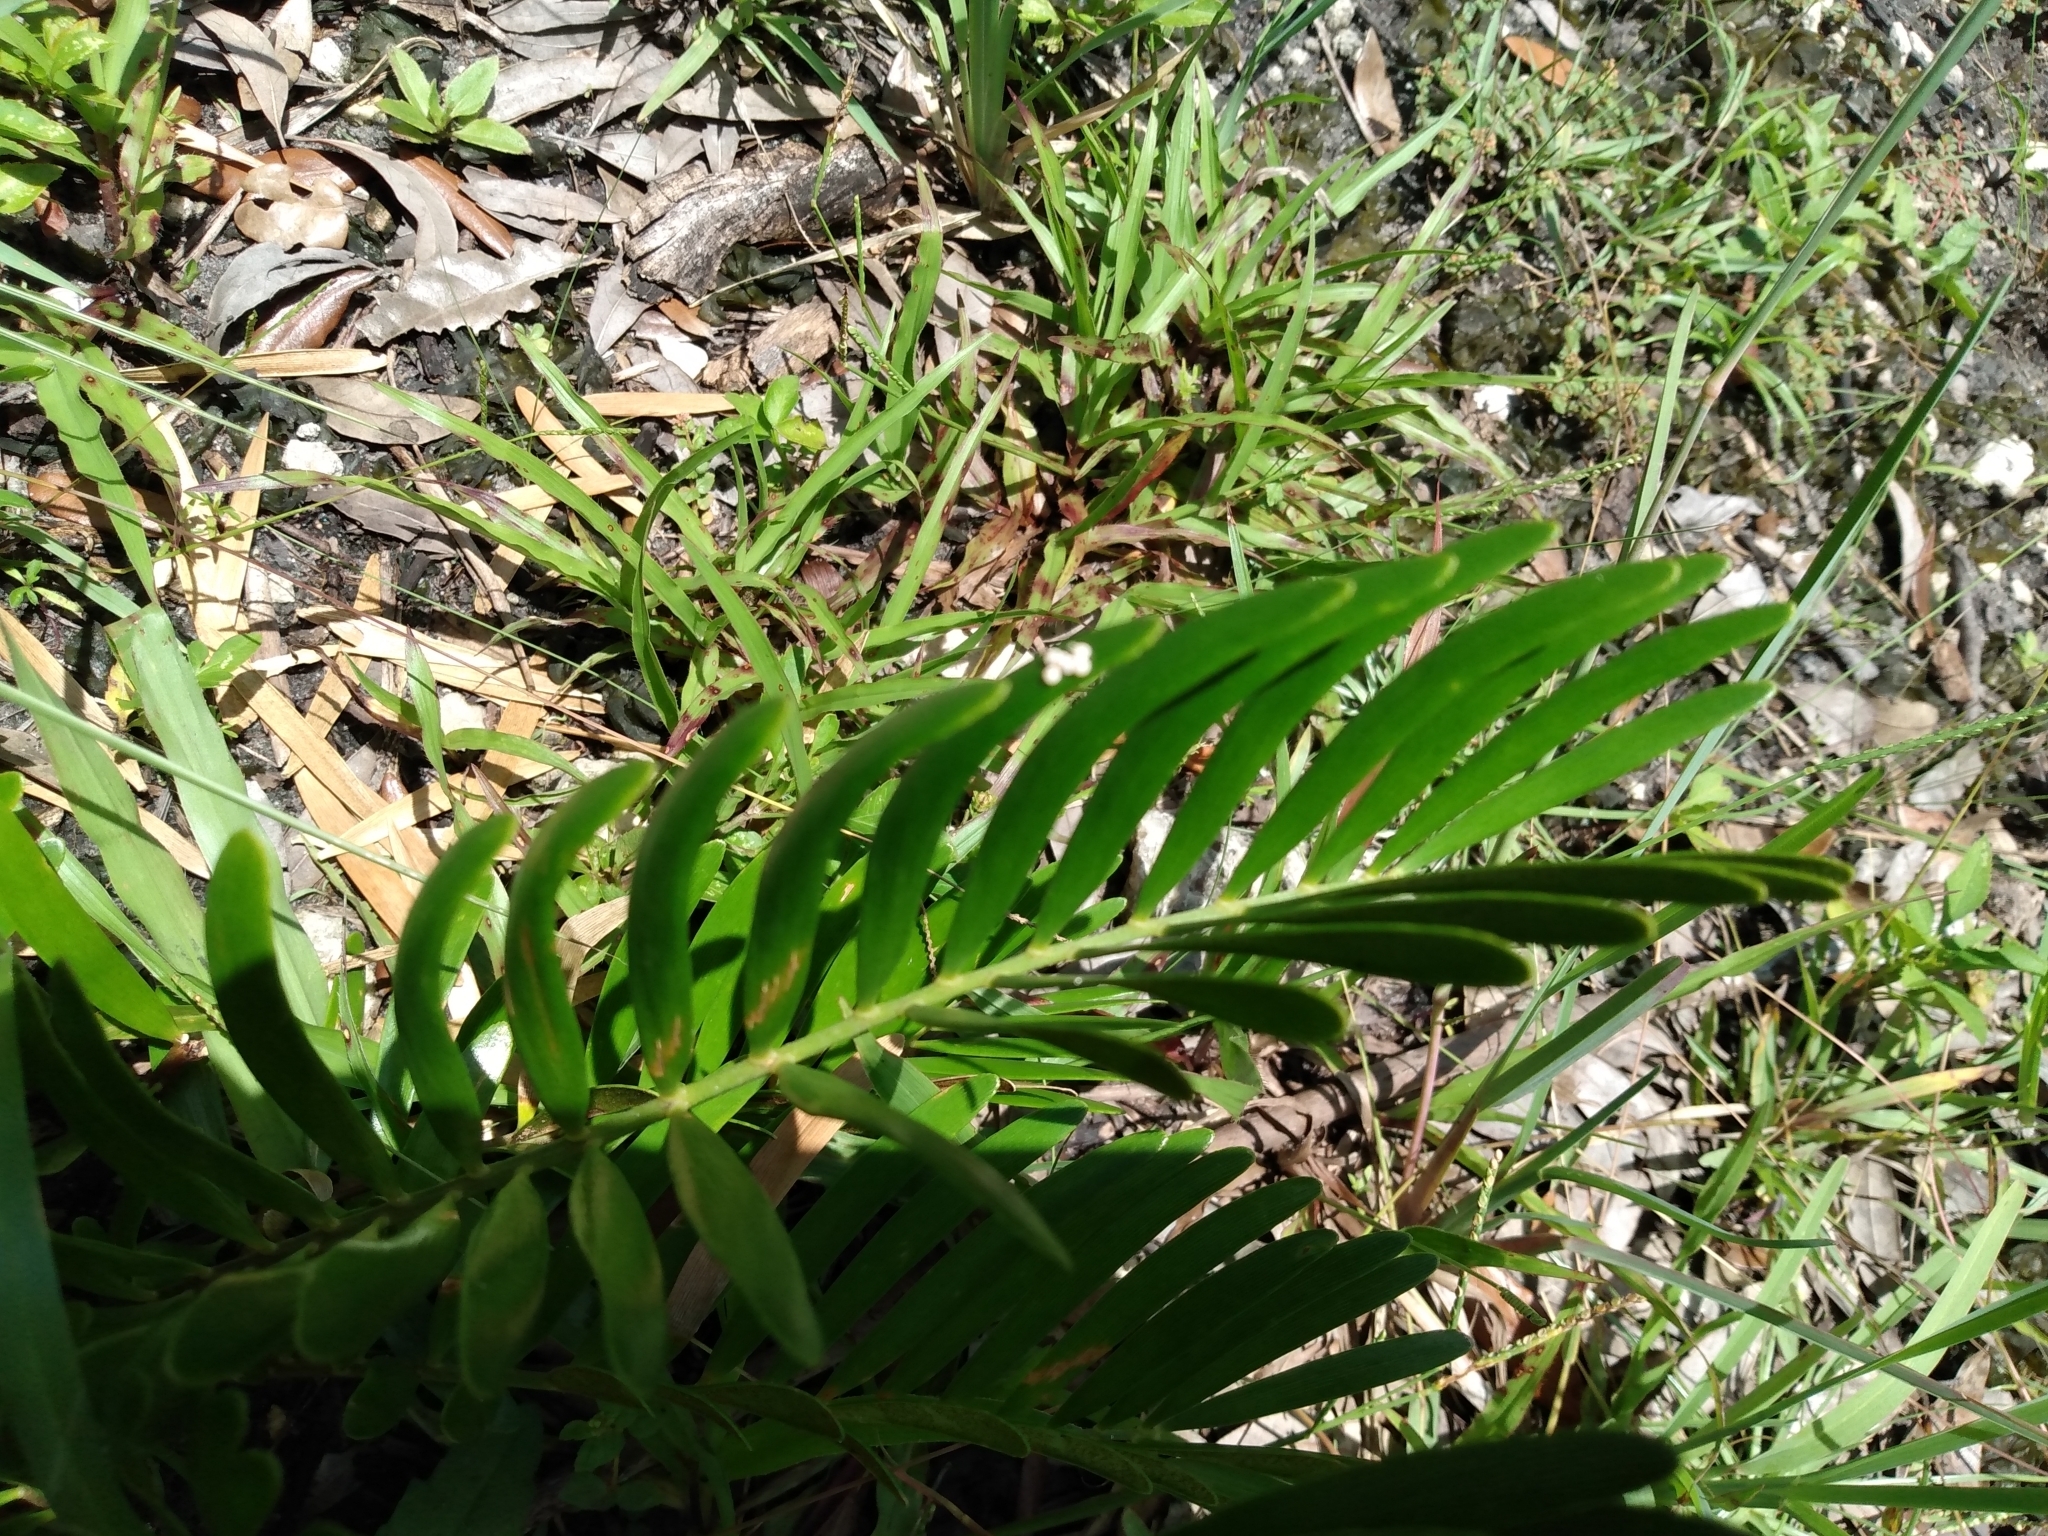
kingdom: Plantae
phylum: Tracheophyta
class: Cycadopsida
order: Cycadales
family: Zamiaceae
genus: Zamia
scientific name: Zamia integrifolia
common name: Florida arrowroot
